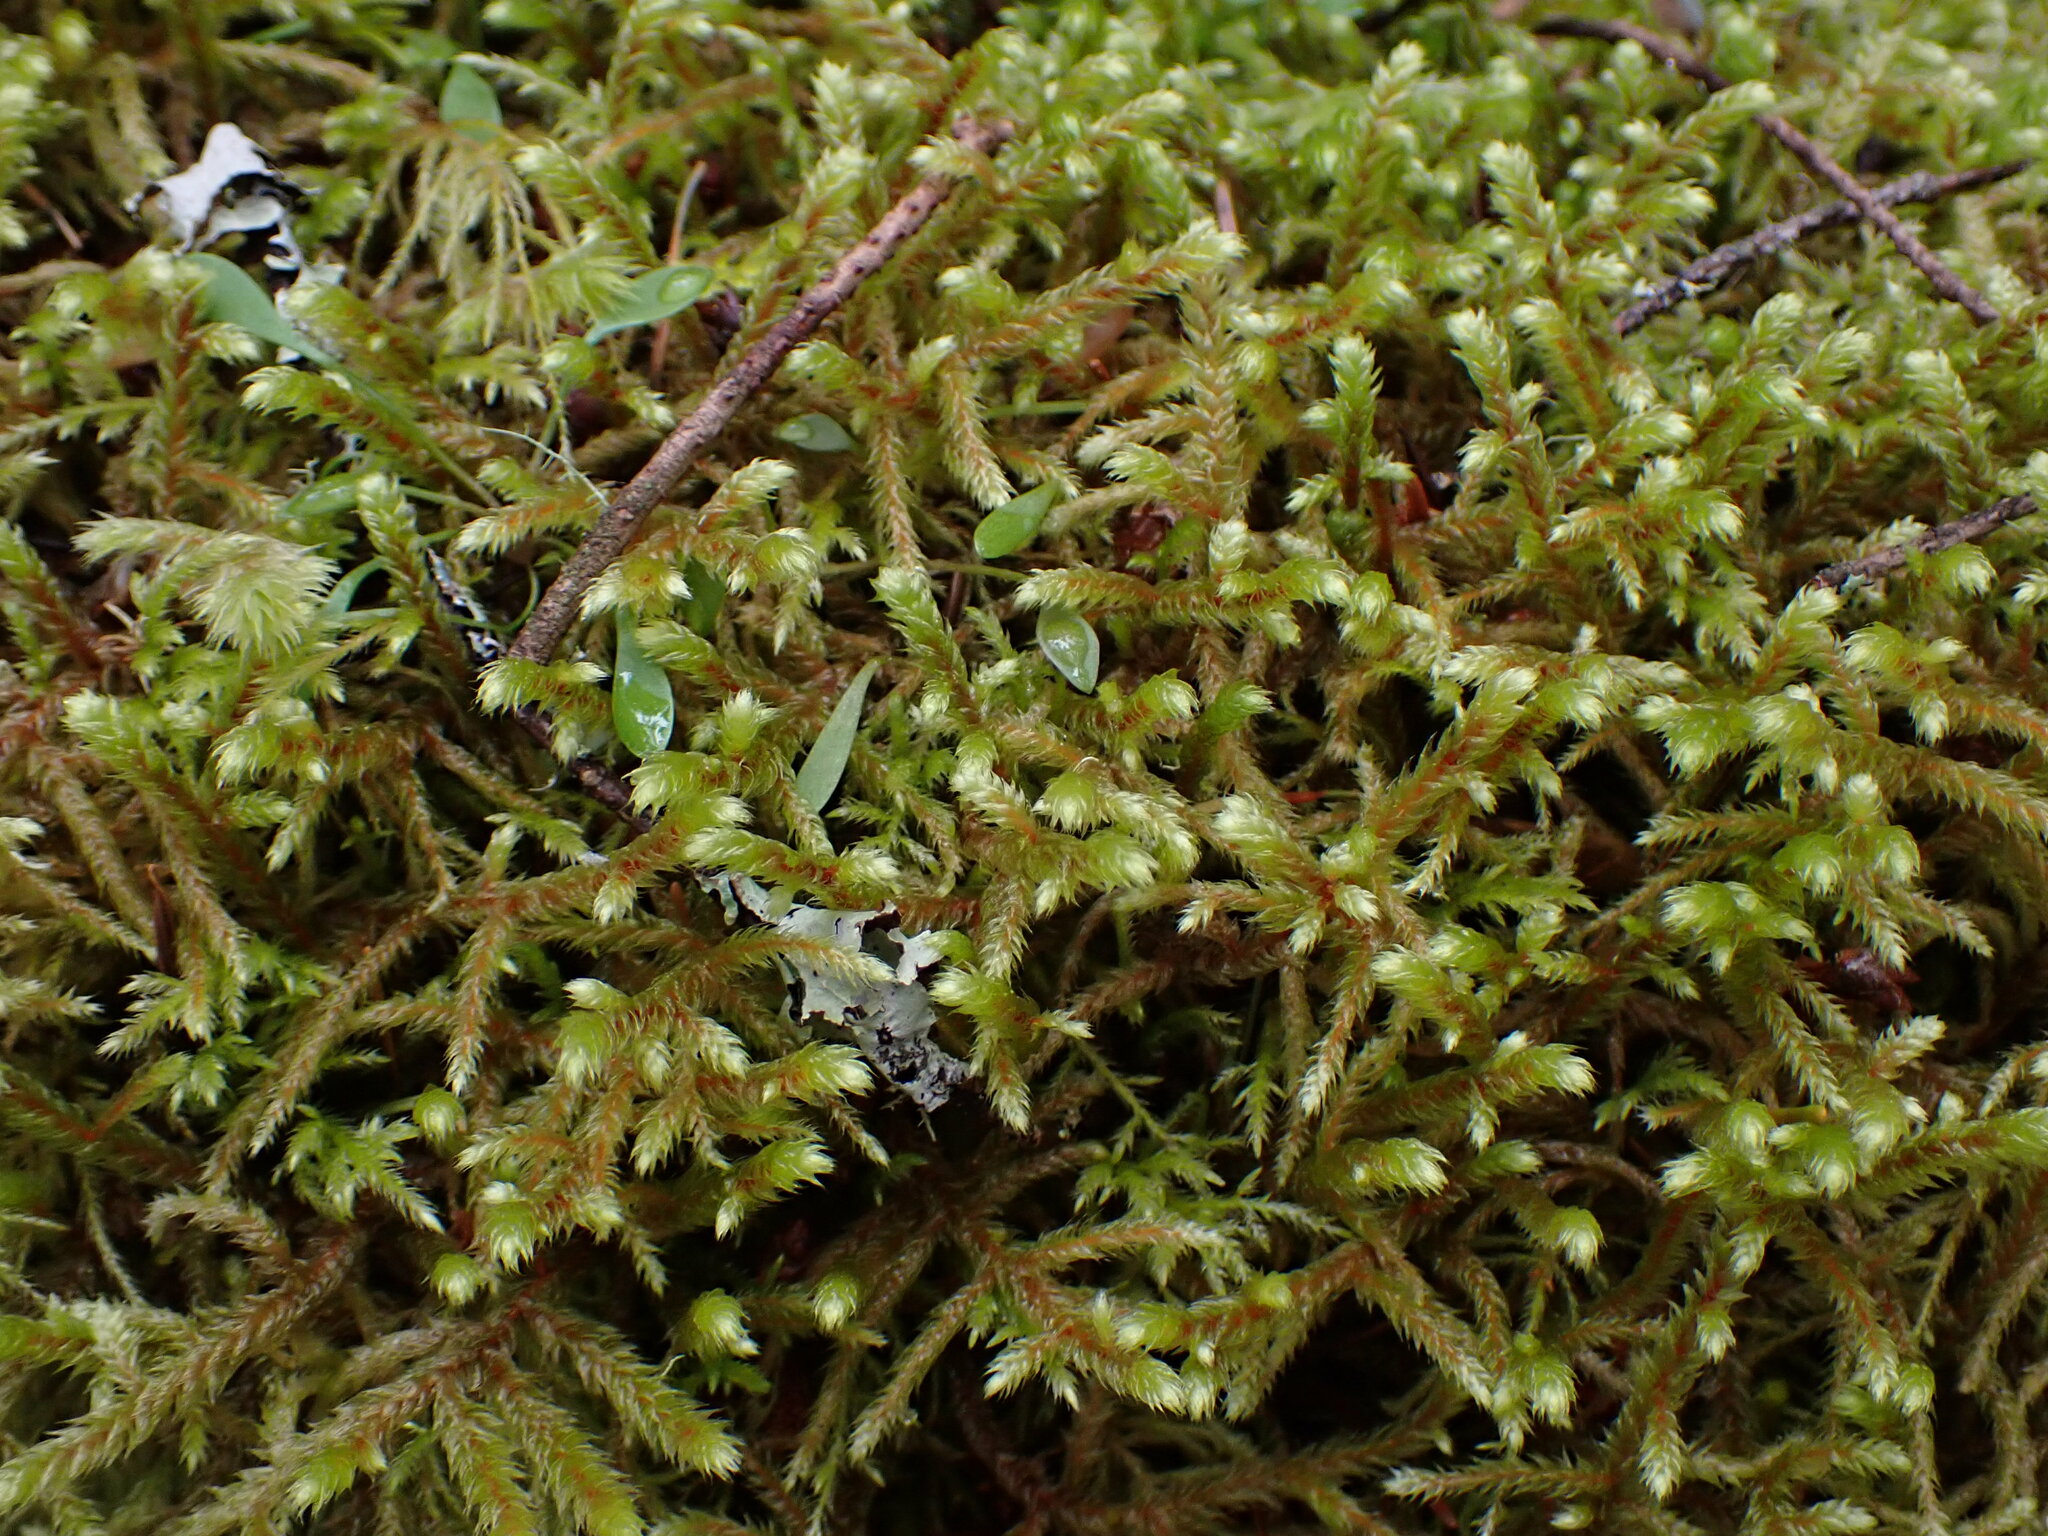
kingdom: Plantae
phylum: Bryophyta
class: Bryopsida
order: Hypnales
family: Antitrichiaceae
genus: Antitrichia
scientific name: Antitrichia curtipendula
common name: Pendulous wing-moss
